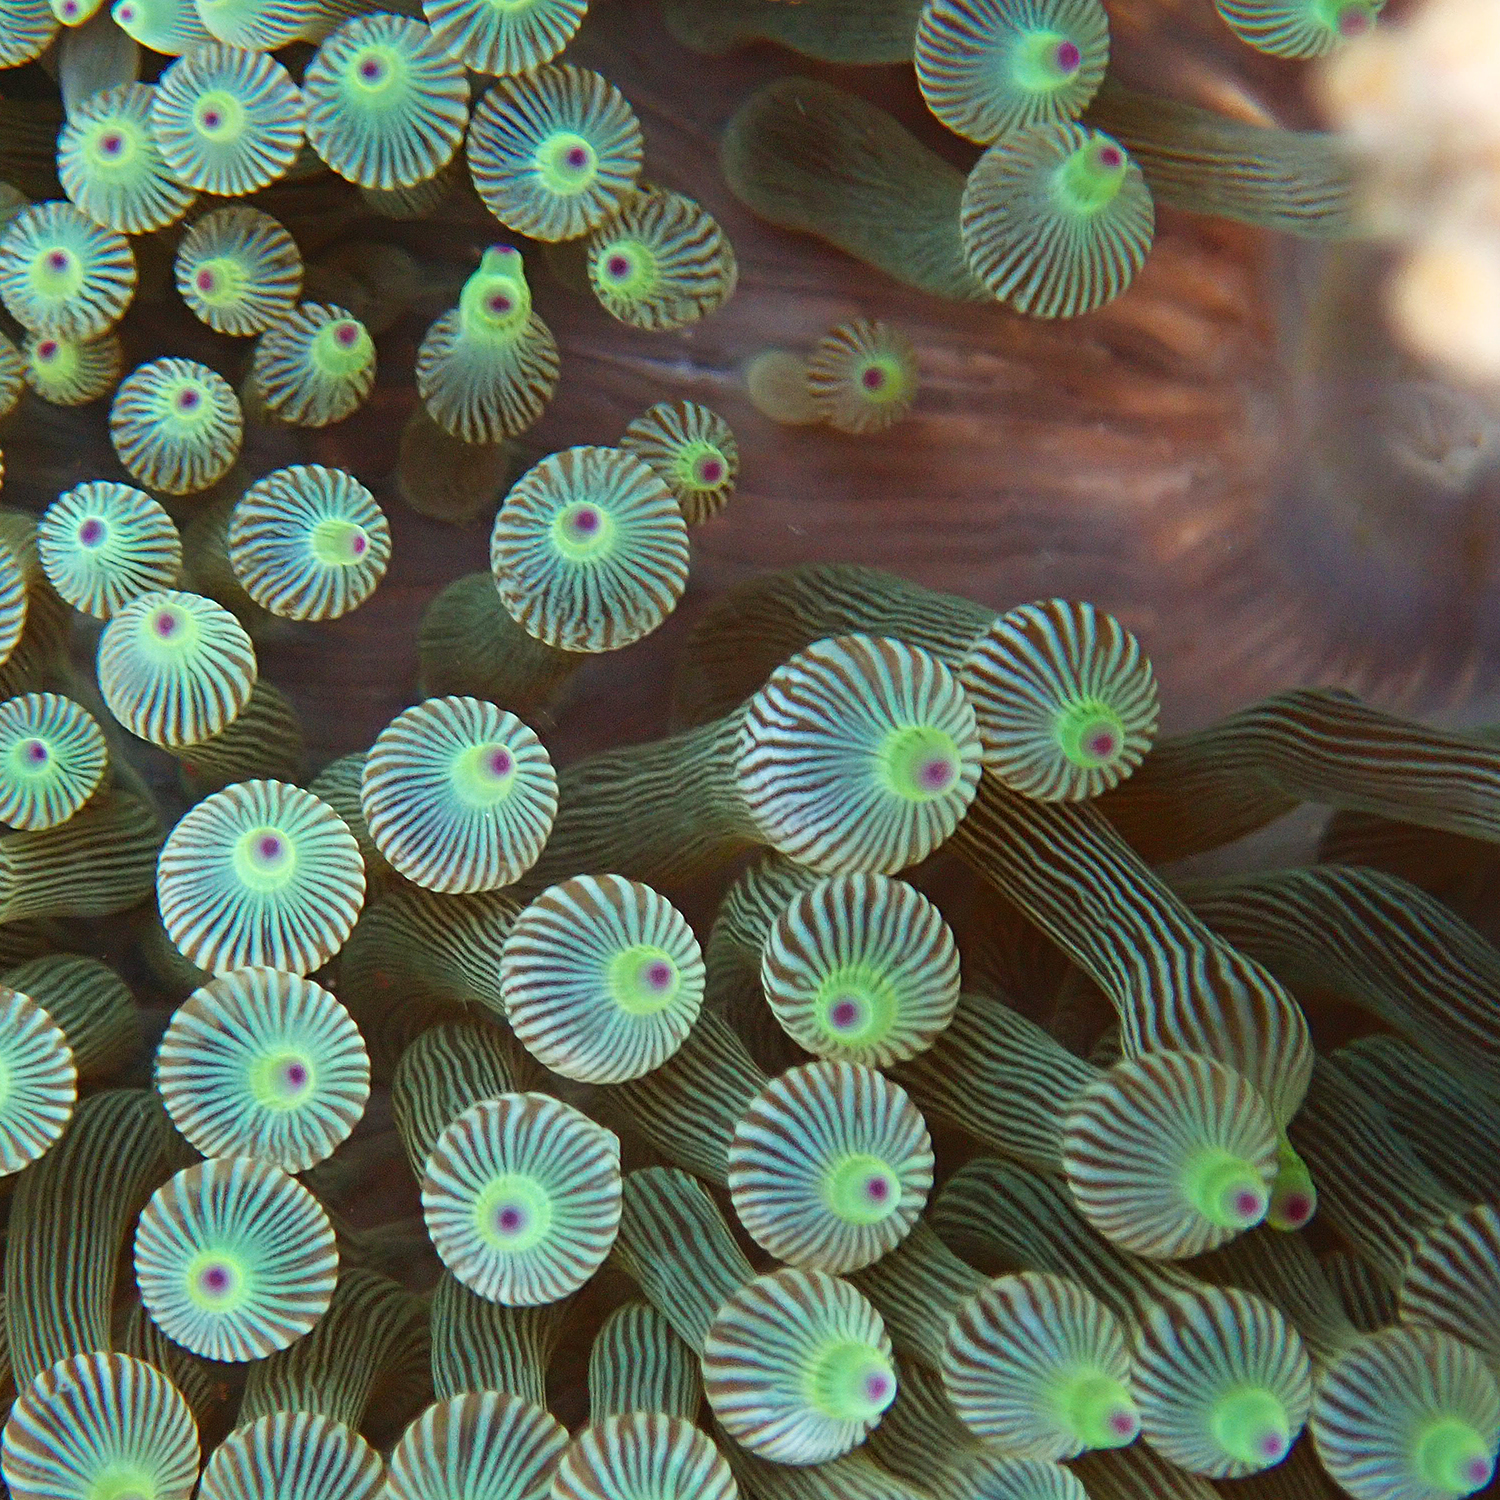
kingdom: Animalia
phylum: Cnidaria
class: Anthozoa
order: Actiniaria
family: Actiniidae
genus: Entacmaea
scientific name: Entacmaea quadricolor
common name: Bulb tentacle sea anemone
